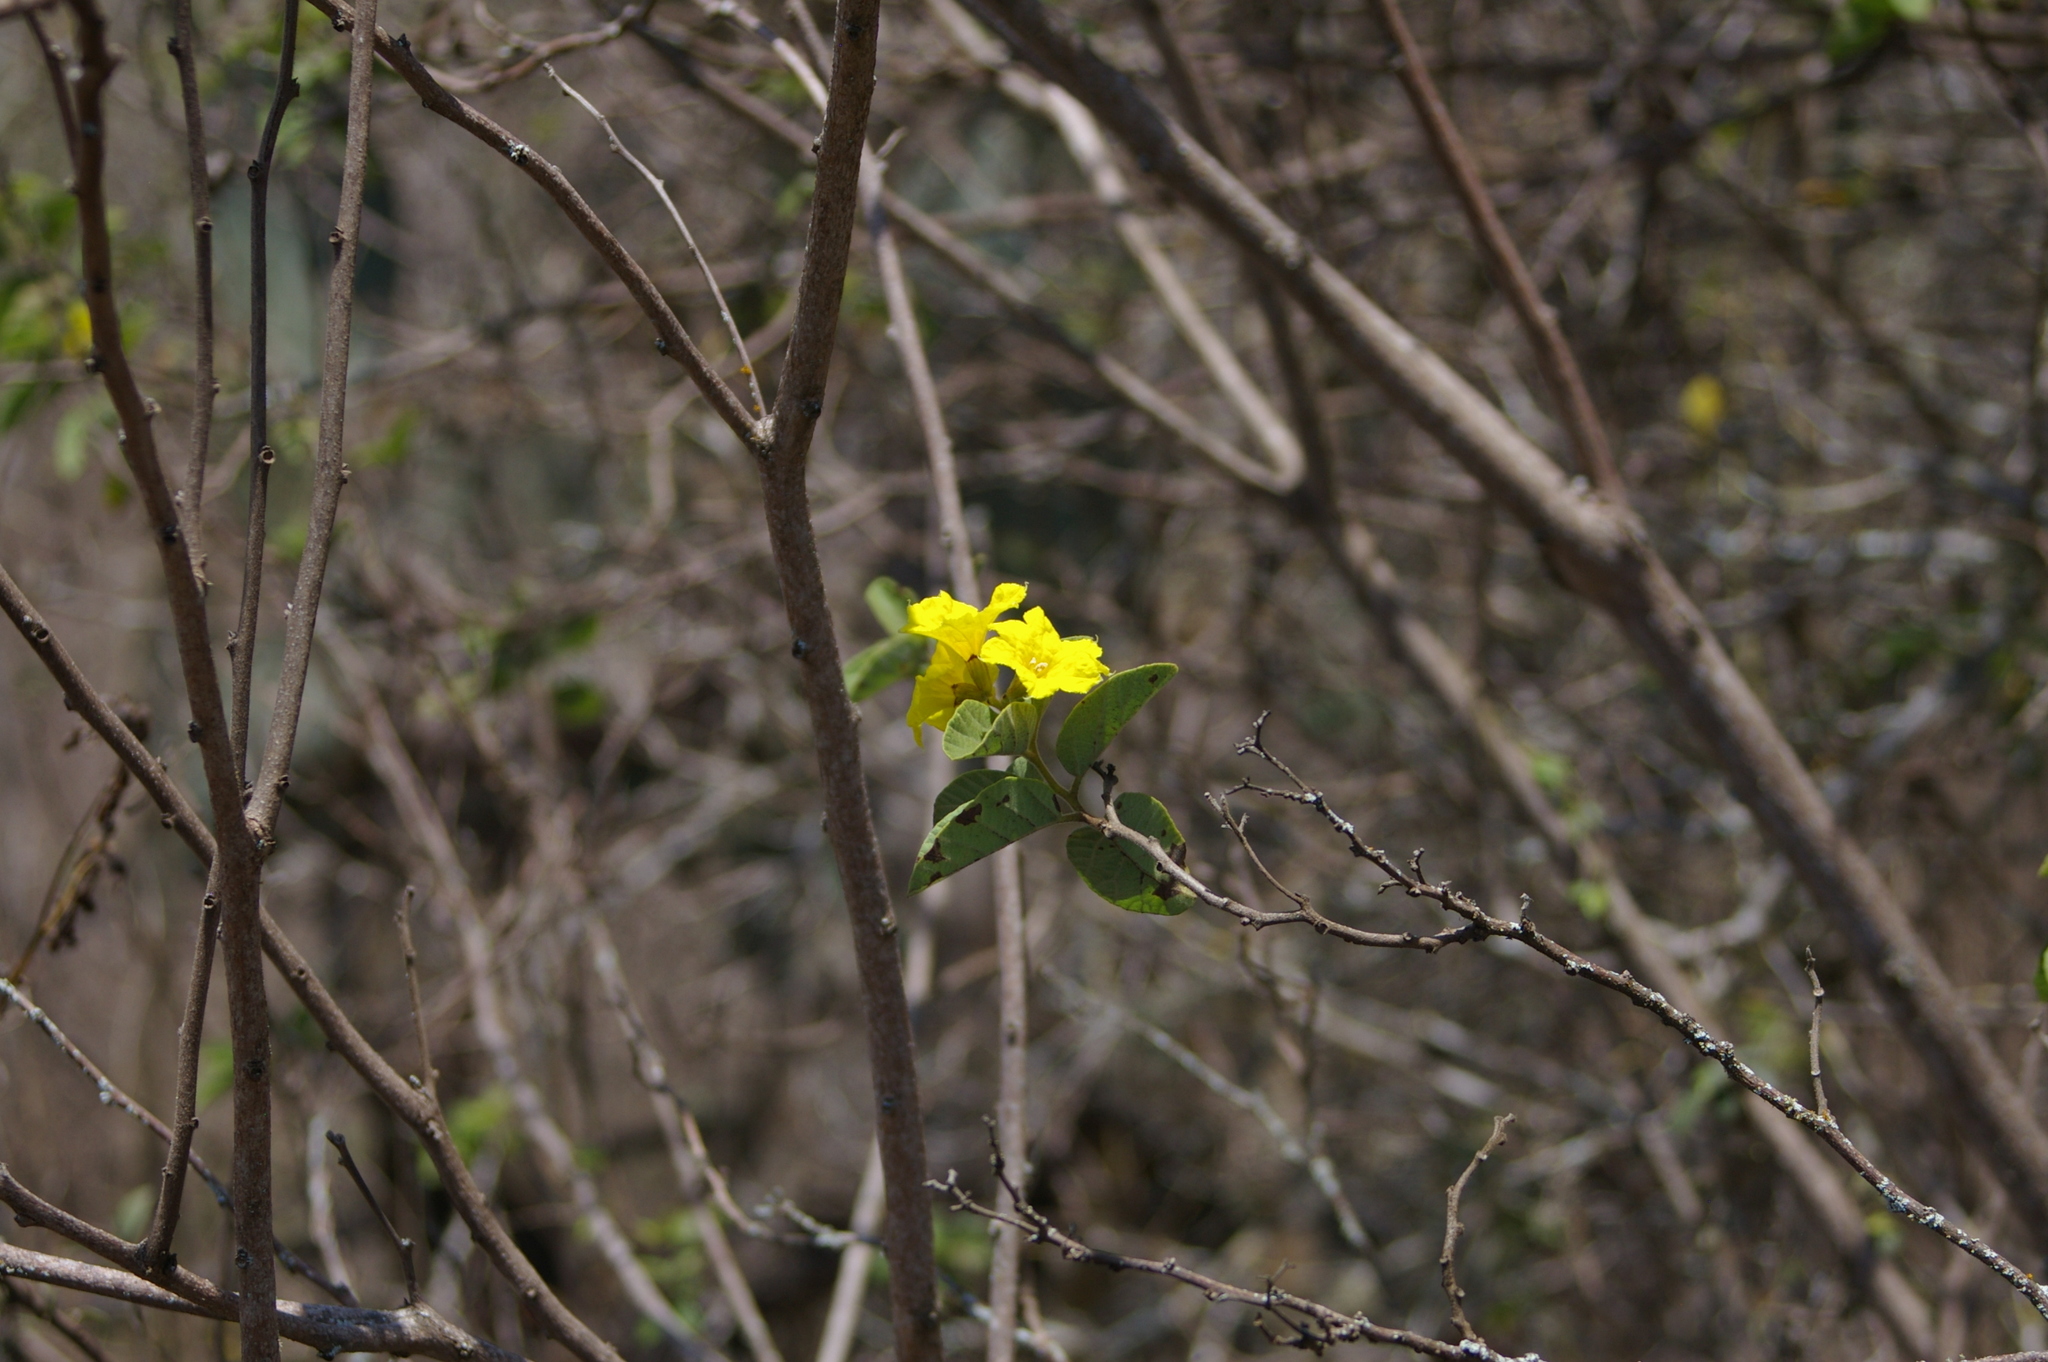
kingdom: Plantae
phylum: Tracheophyta
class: Magnoliopsida
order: Boraginales
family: Cordiaceae
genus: Cordia
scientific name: Cordia lutea
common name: Yellow geiger
